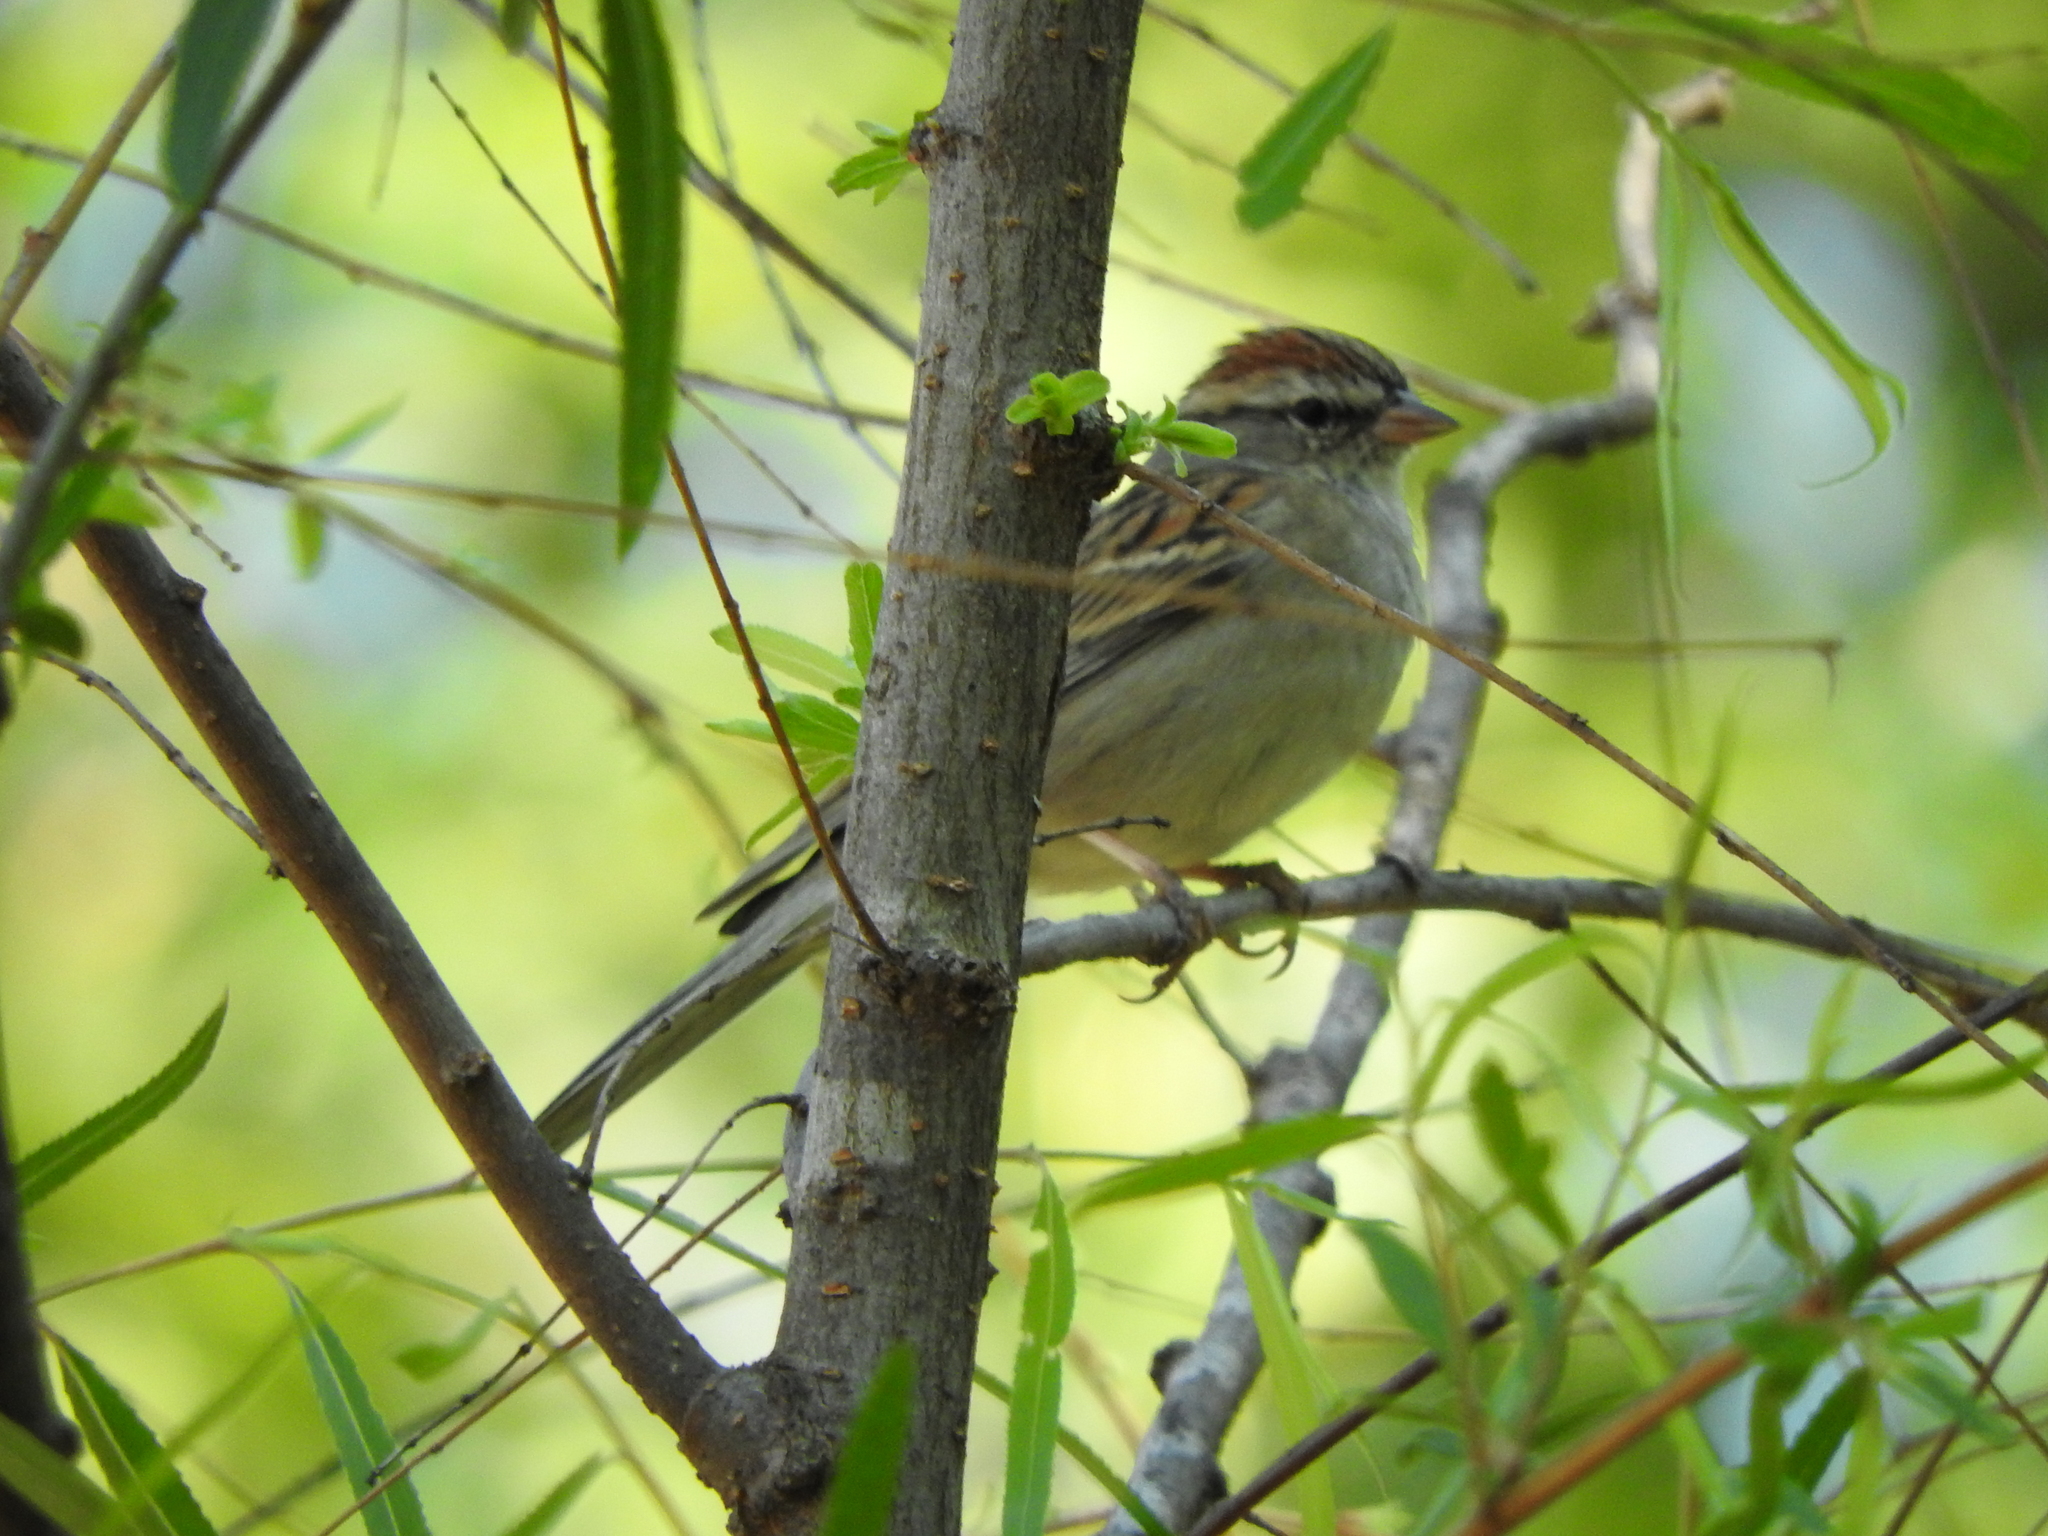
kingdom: Animalia
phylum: Chordata
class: Aves
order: Passeriformes
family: Passerellidae
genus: Spizella
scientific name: Spizella passerina
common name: Chipping sparrow
